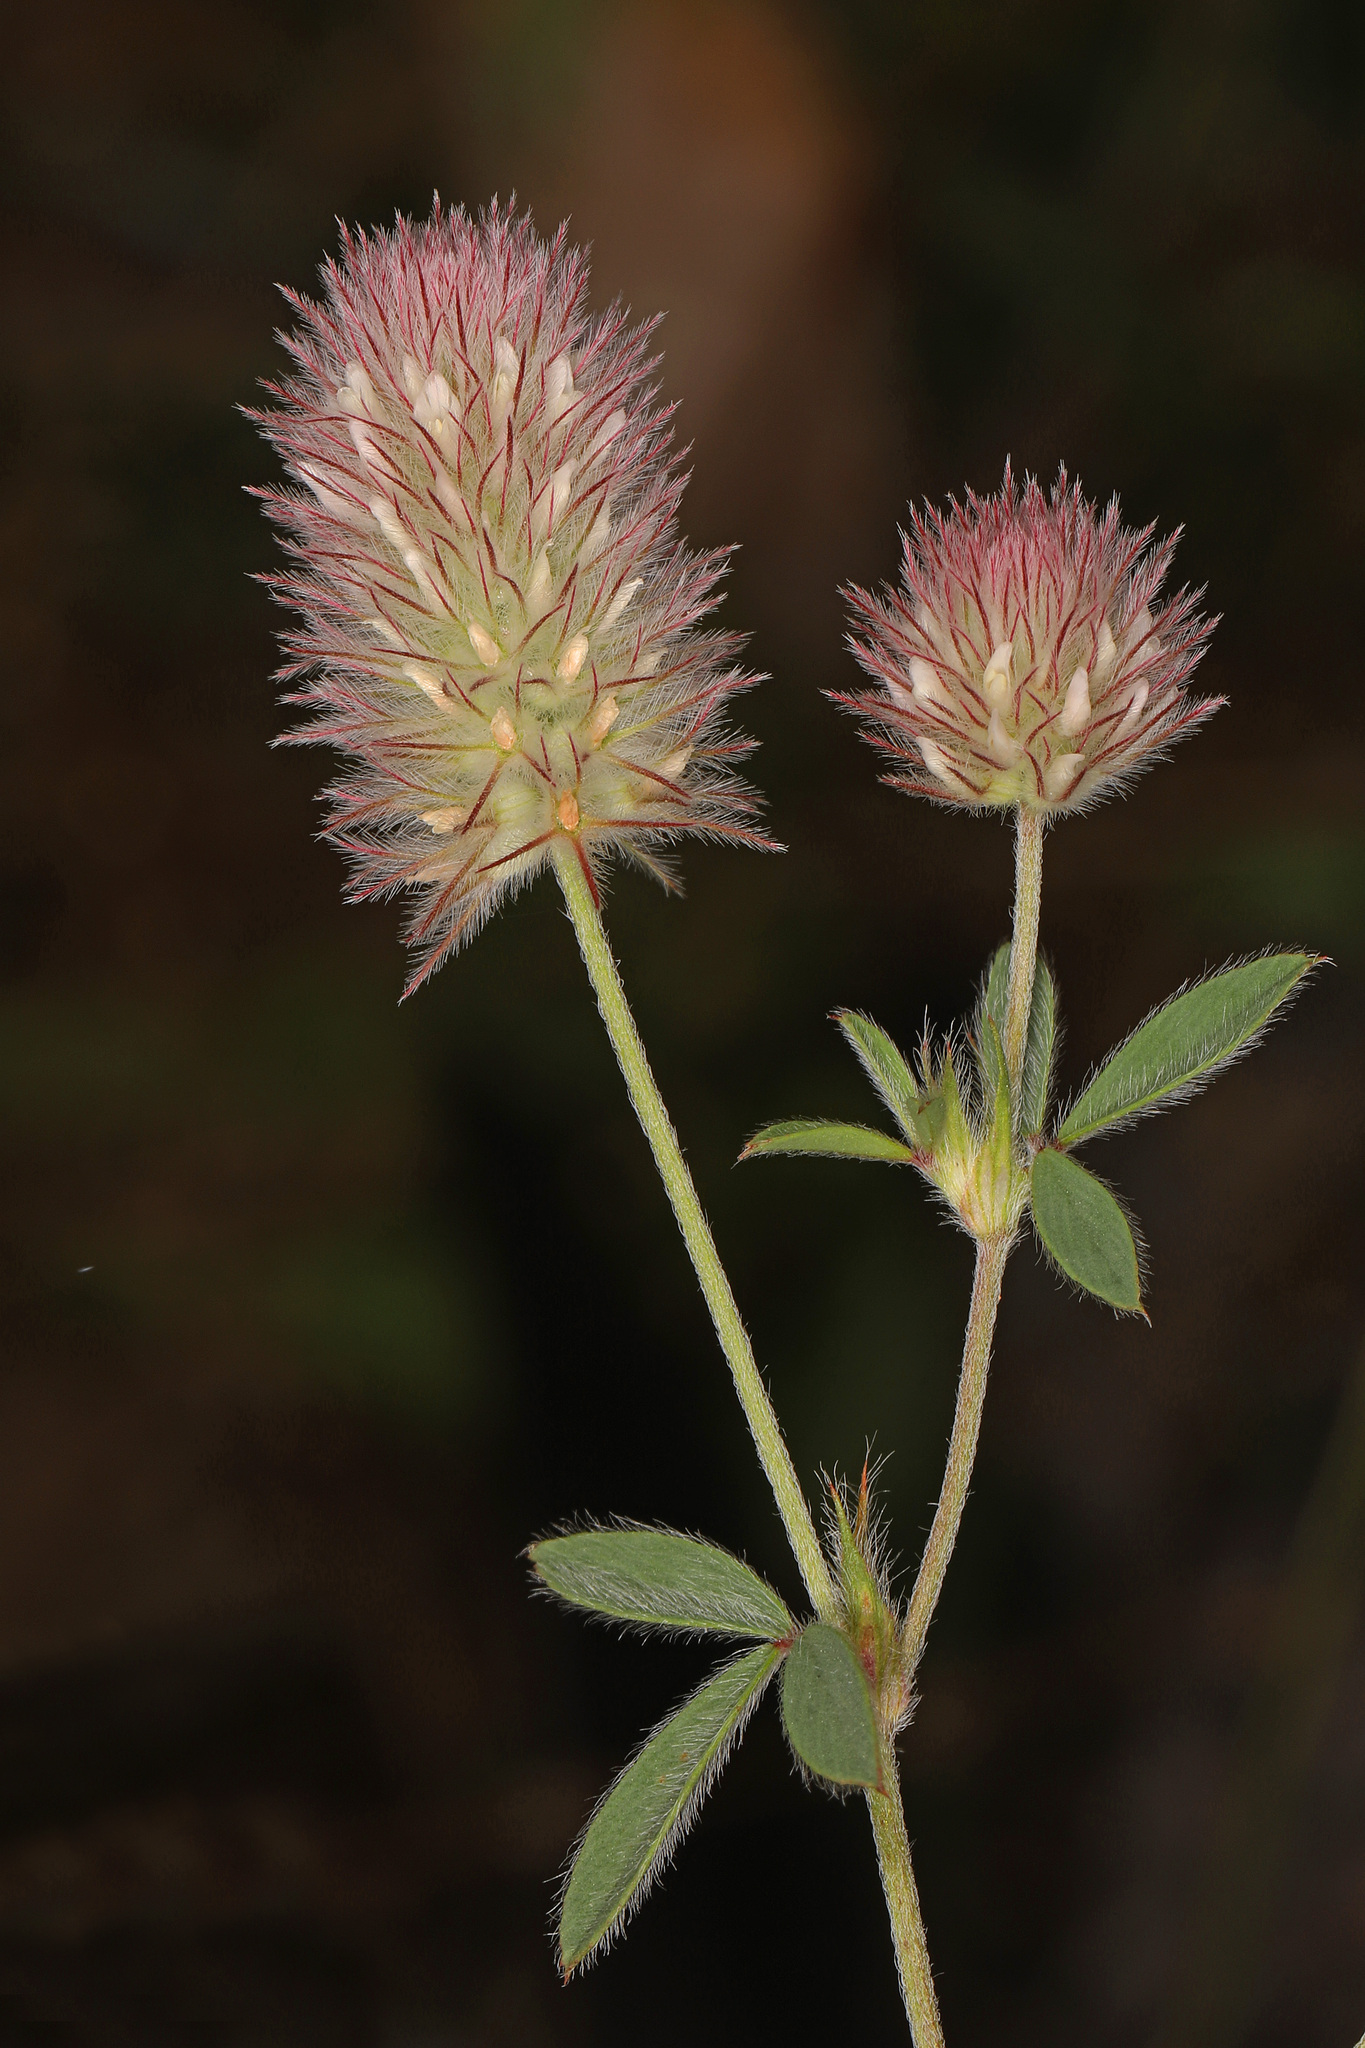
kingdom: Plantae
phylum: Tracheophyta
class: Magnoliopsida
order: Fabales
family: Fabaceae
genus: Trifolium
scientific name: Trifolium arvense
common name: Hare's-foot clover
